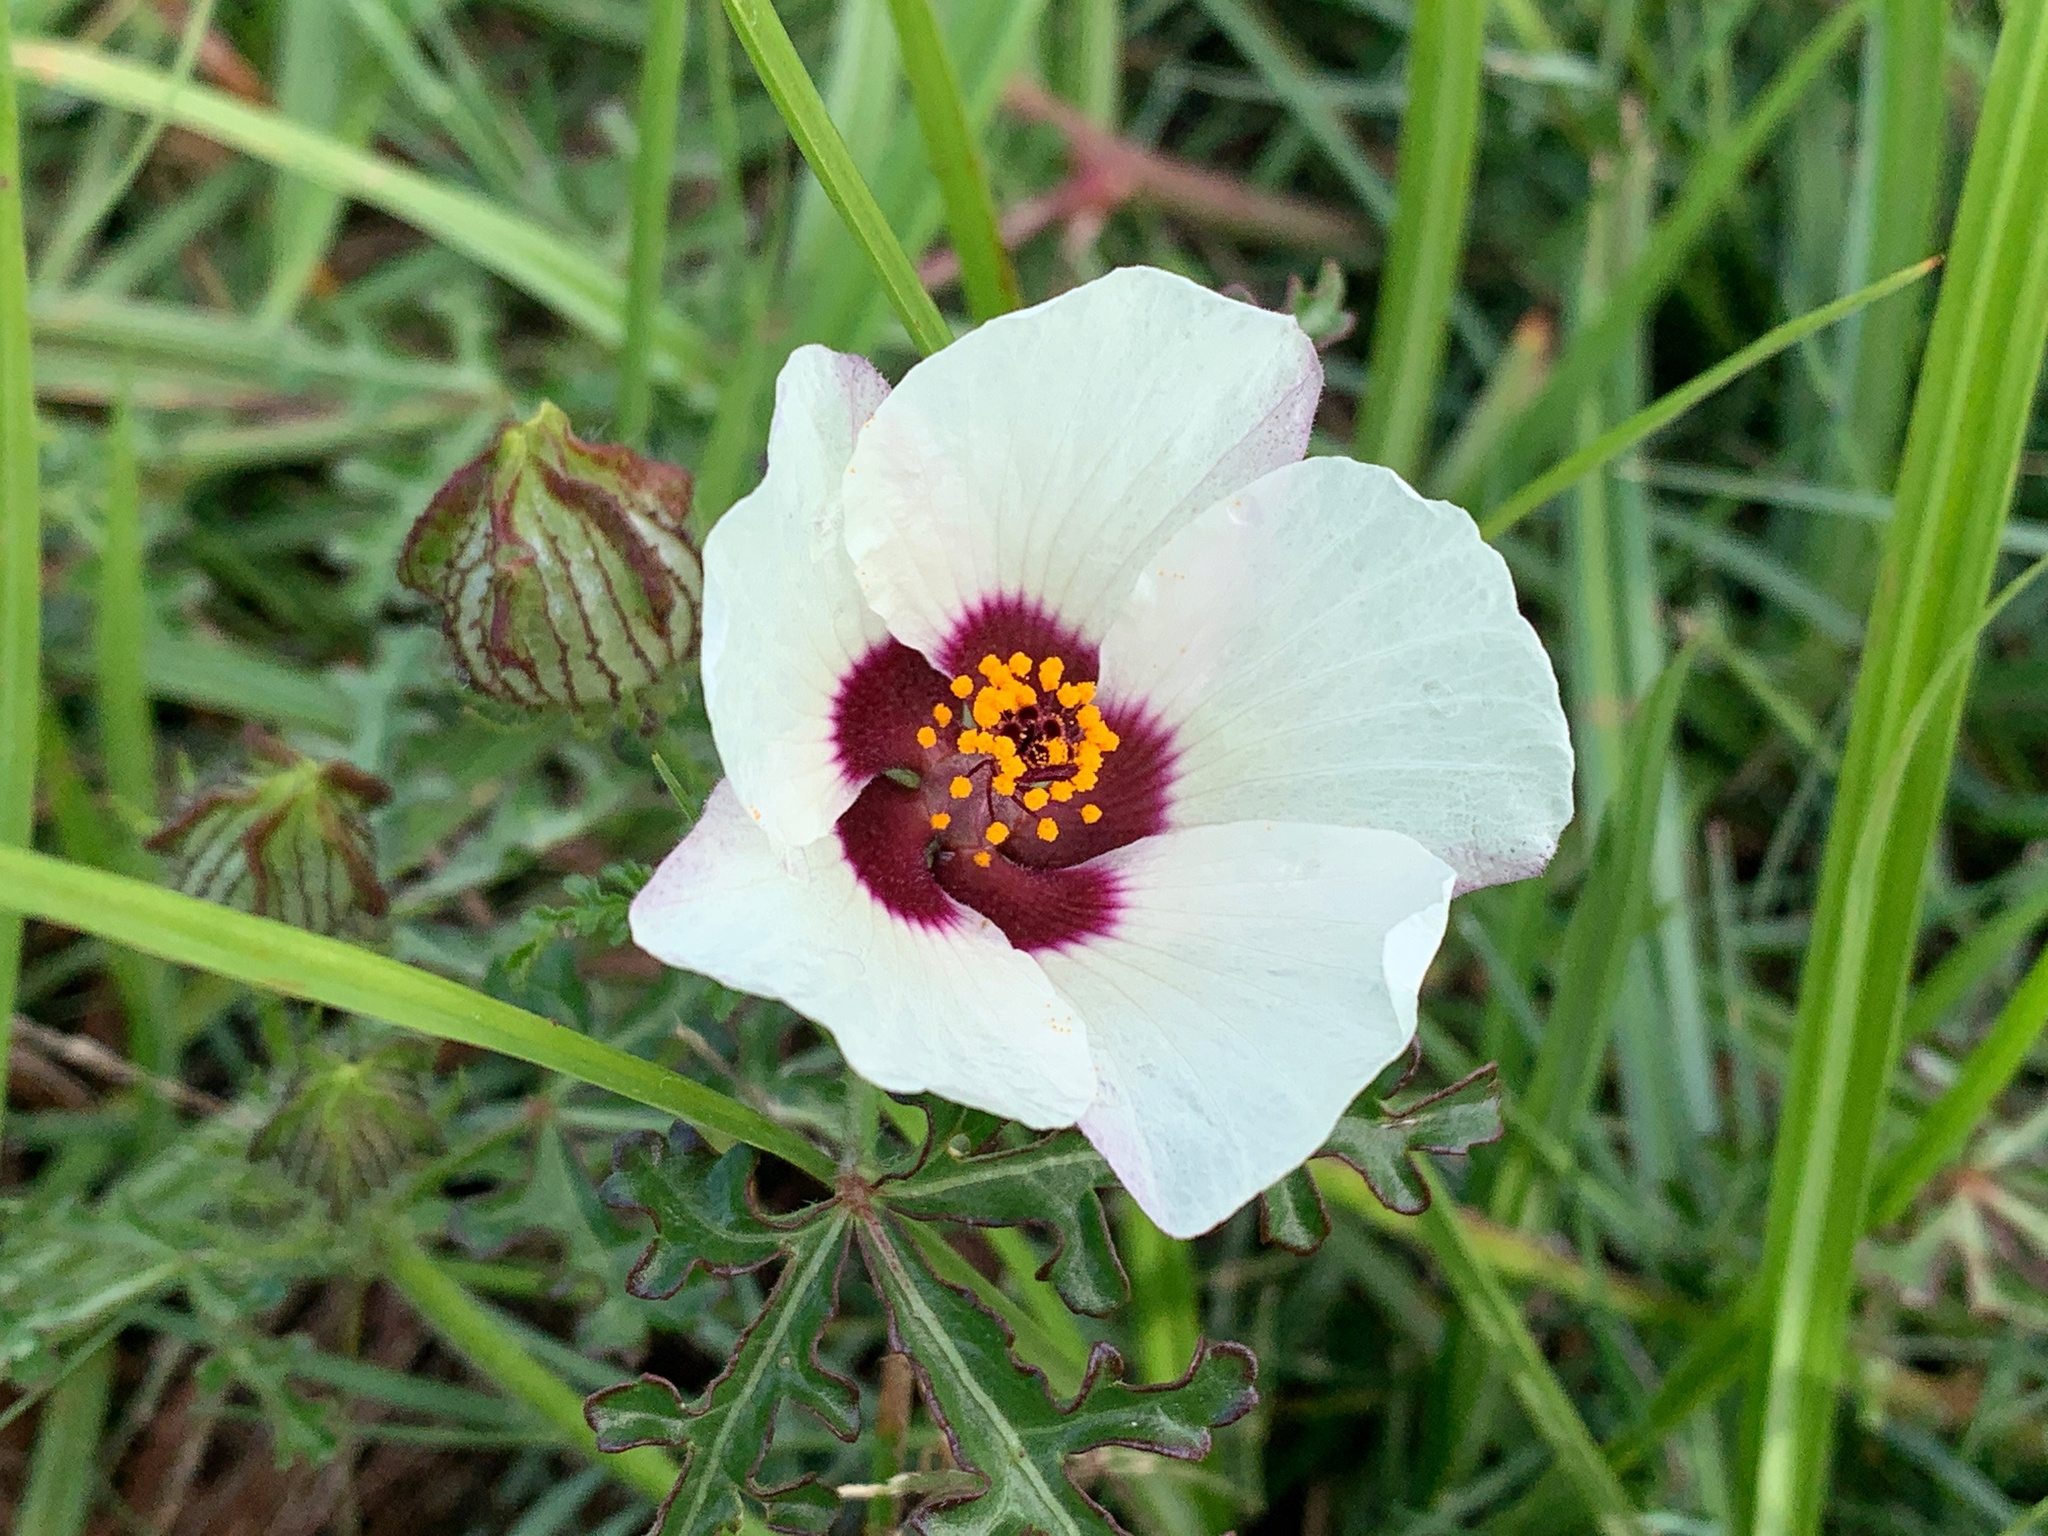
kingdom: Plantae
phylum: Tracheophyta
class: Magnoliopsida
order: Malvales
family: Malvaceae
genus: Hibiscus
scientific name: Hibiscus trionum
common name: Bladder ketmia
